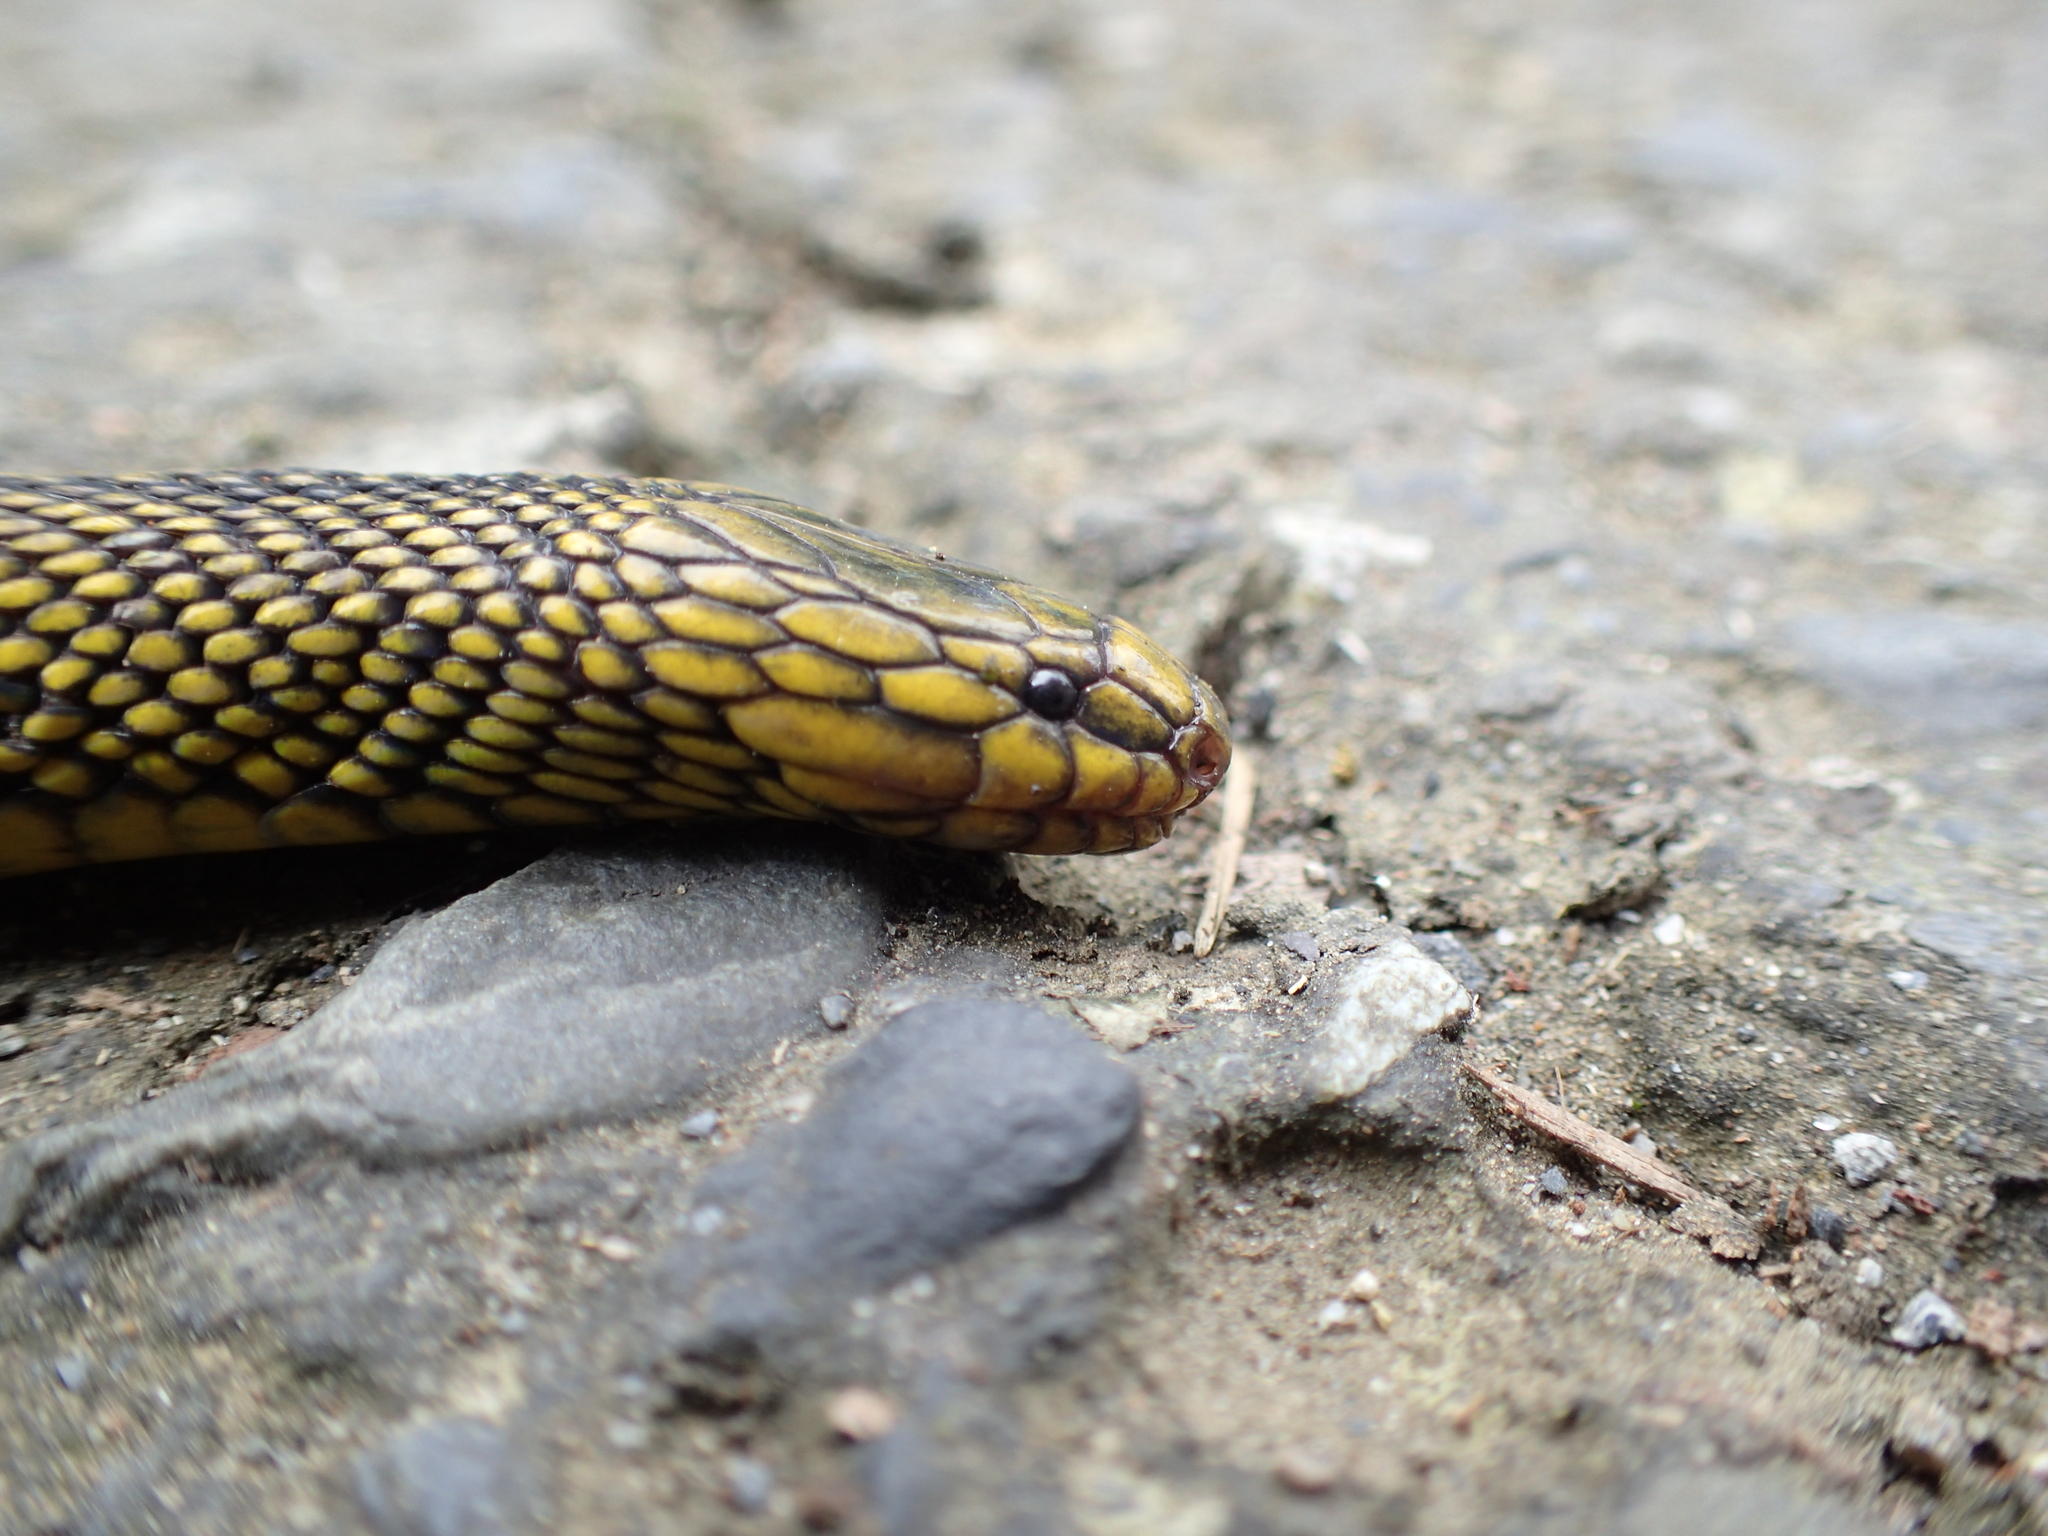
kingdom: Animalia
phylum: Chordata
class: Squamata
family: Xenodermidae
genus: Achalinus
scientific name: Achalinus niger
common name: Black odd-scaled snake
